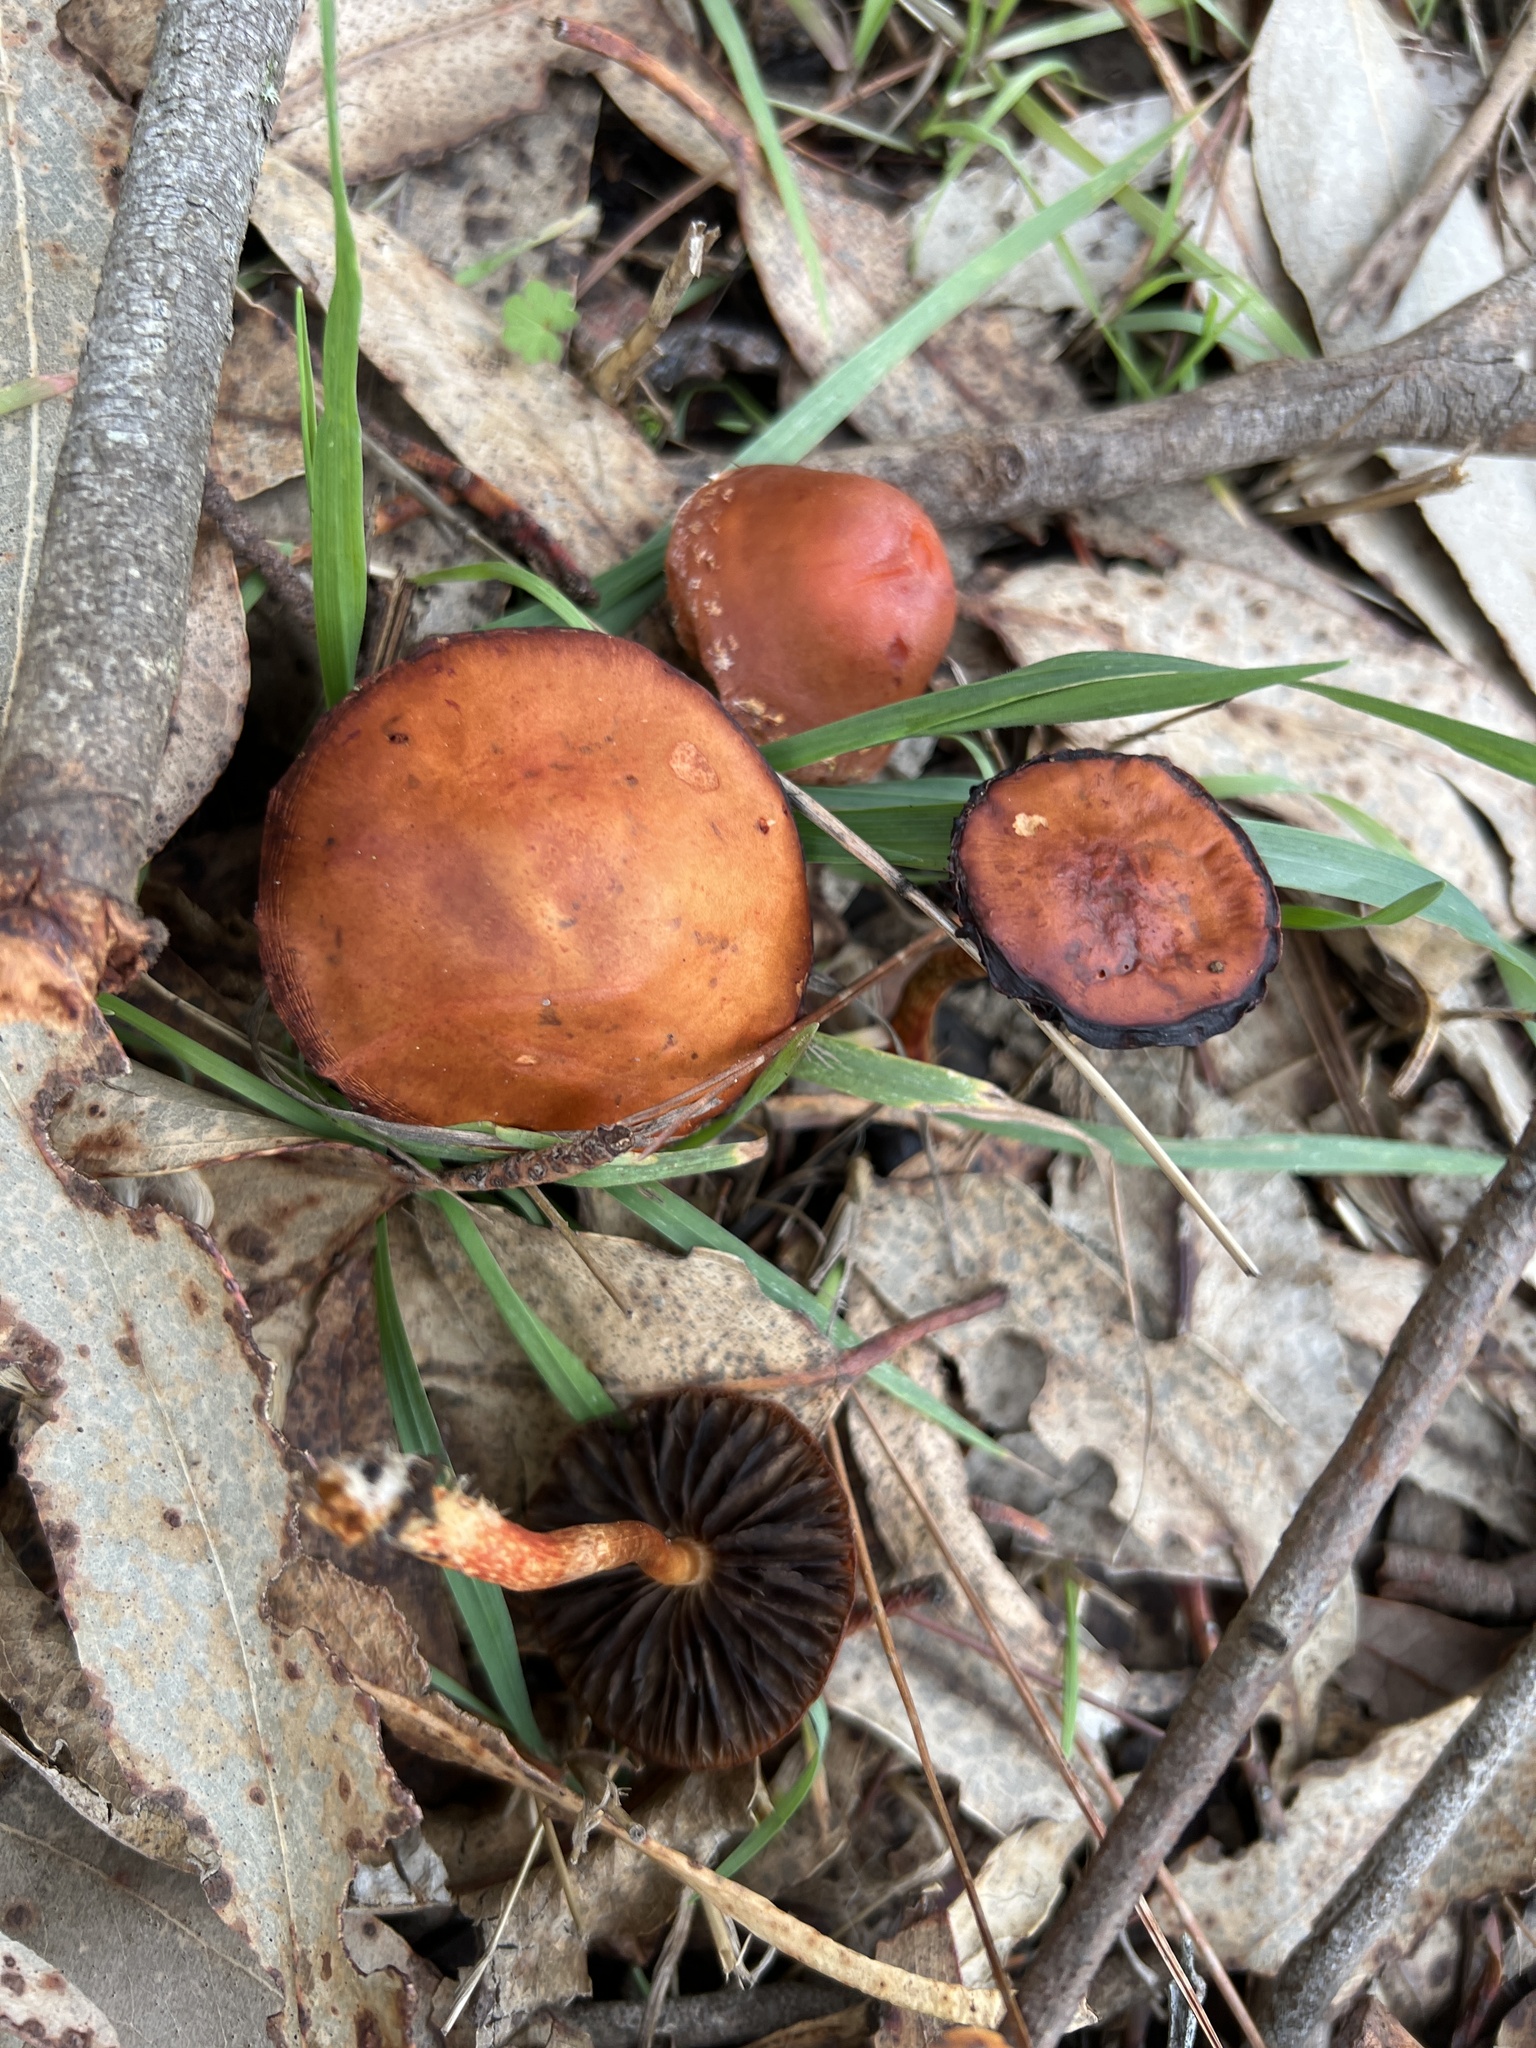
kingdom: Fungi
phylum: Basidiomycota
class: Agaricomycetes
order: Agaricales
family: Strophariaceae
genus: Leratiomyces
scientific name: Leratiomyces ceres
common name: Redlead roundhead
